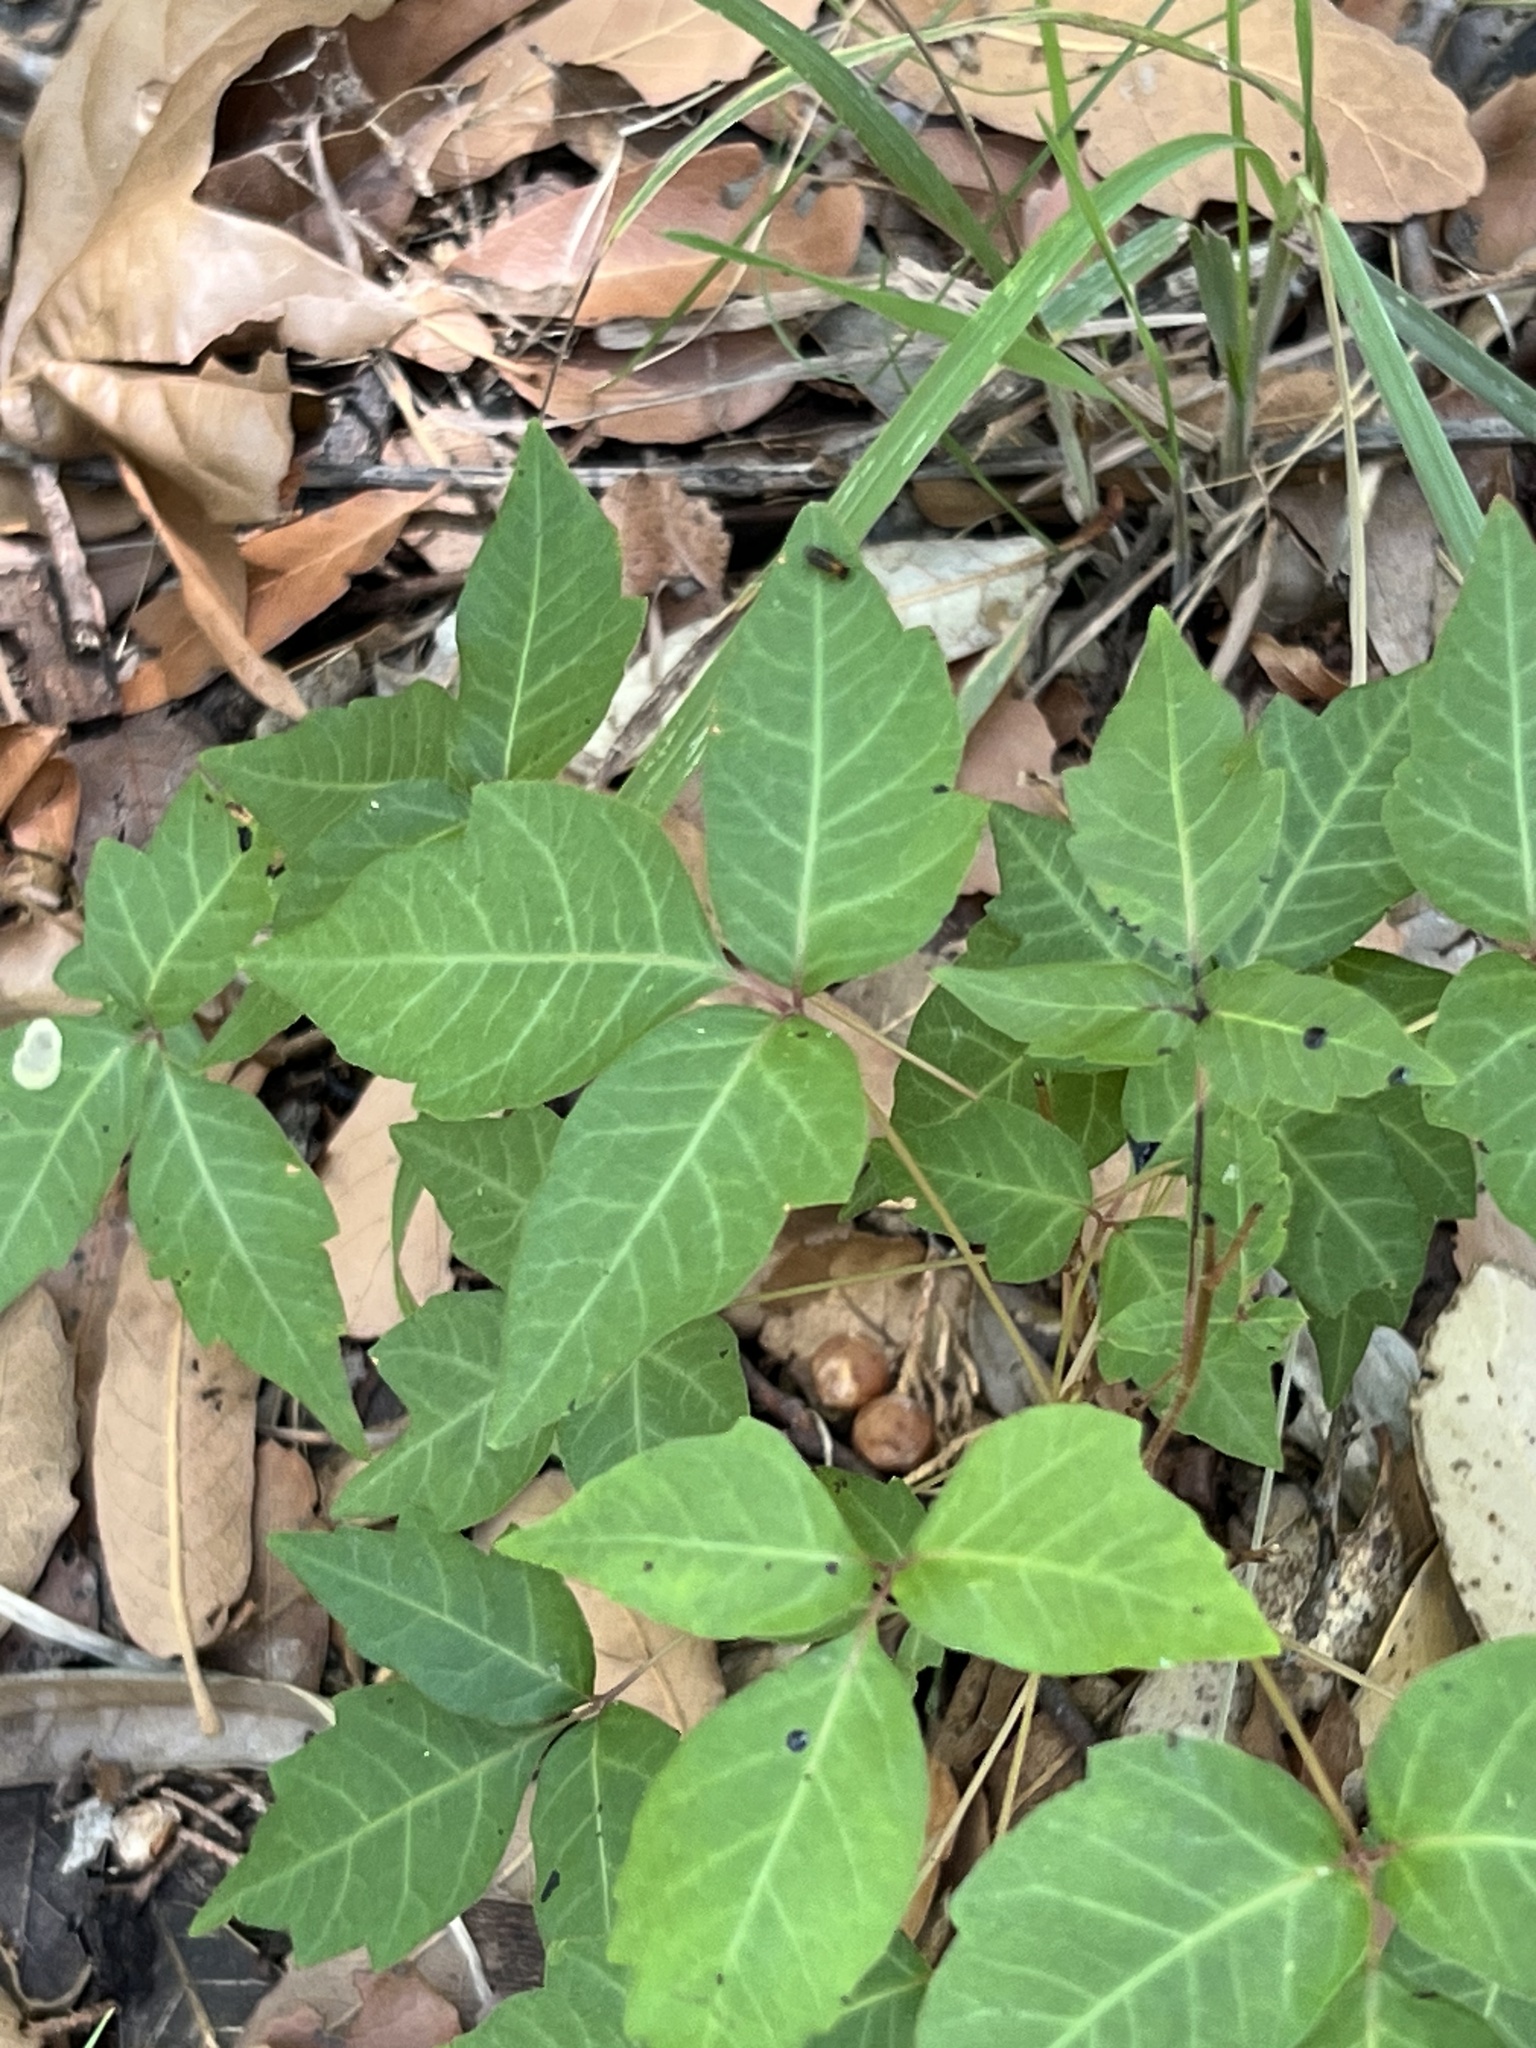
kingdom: Plantae
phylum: Tracheophyta
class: Magnoliopsida
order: Sapindales
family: Anacardiaceae
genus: Toxicodendron
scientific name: Toxicodendron rydbergii
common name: Rydberg's poison-ivy
